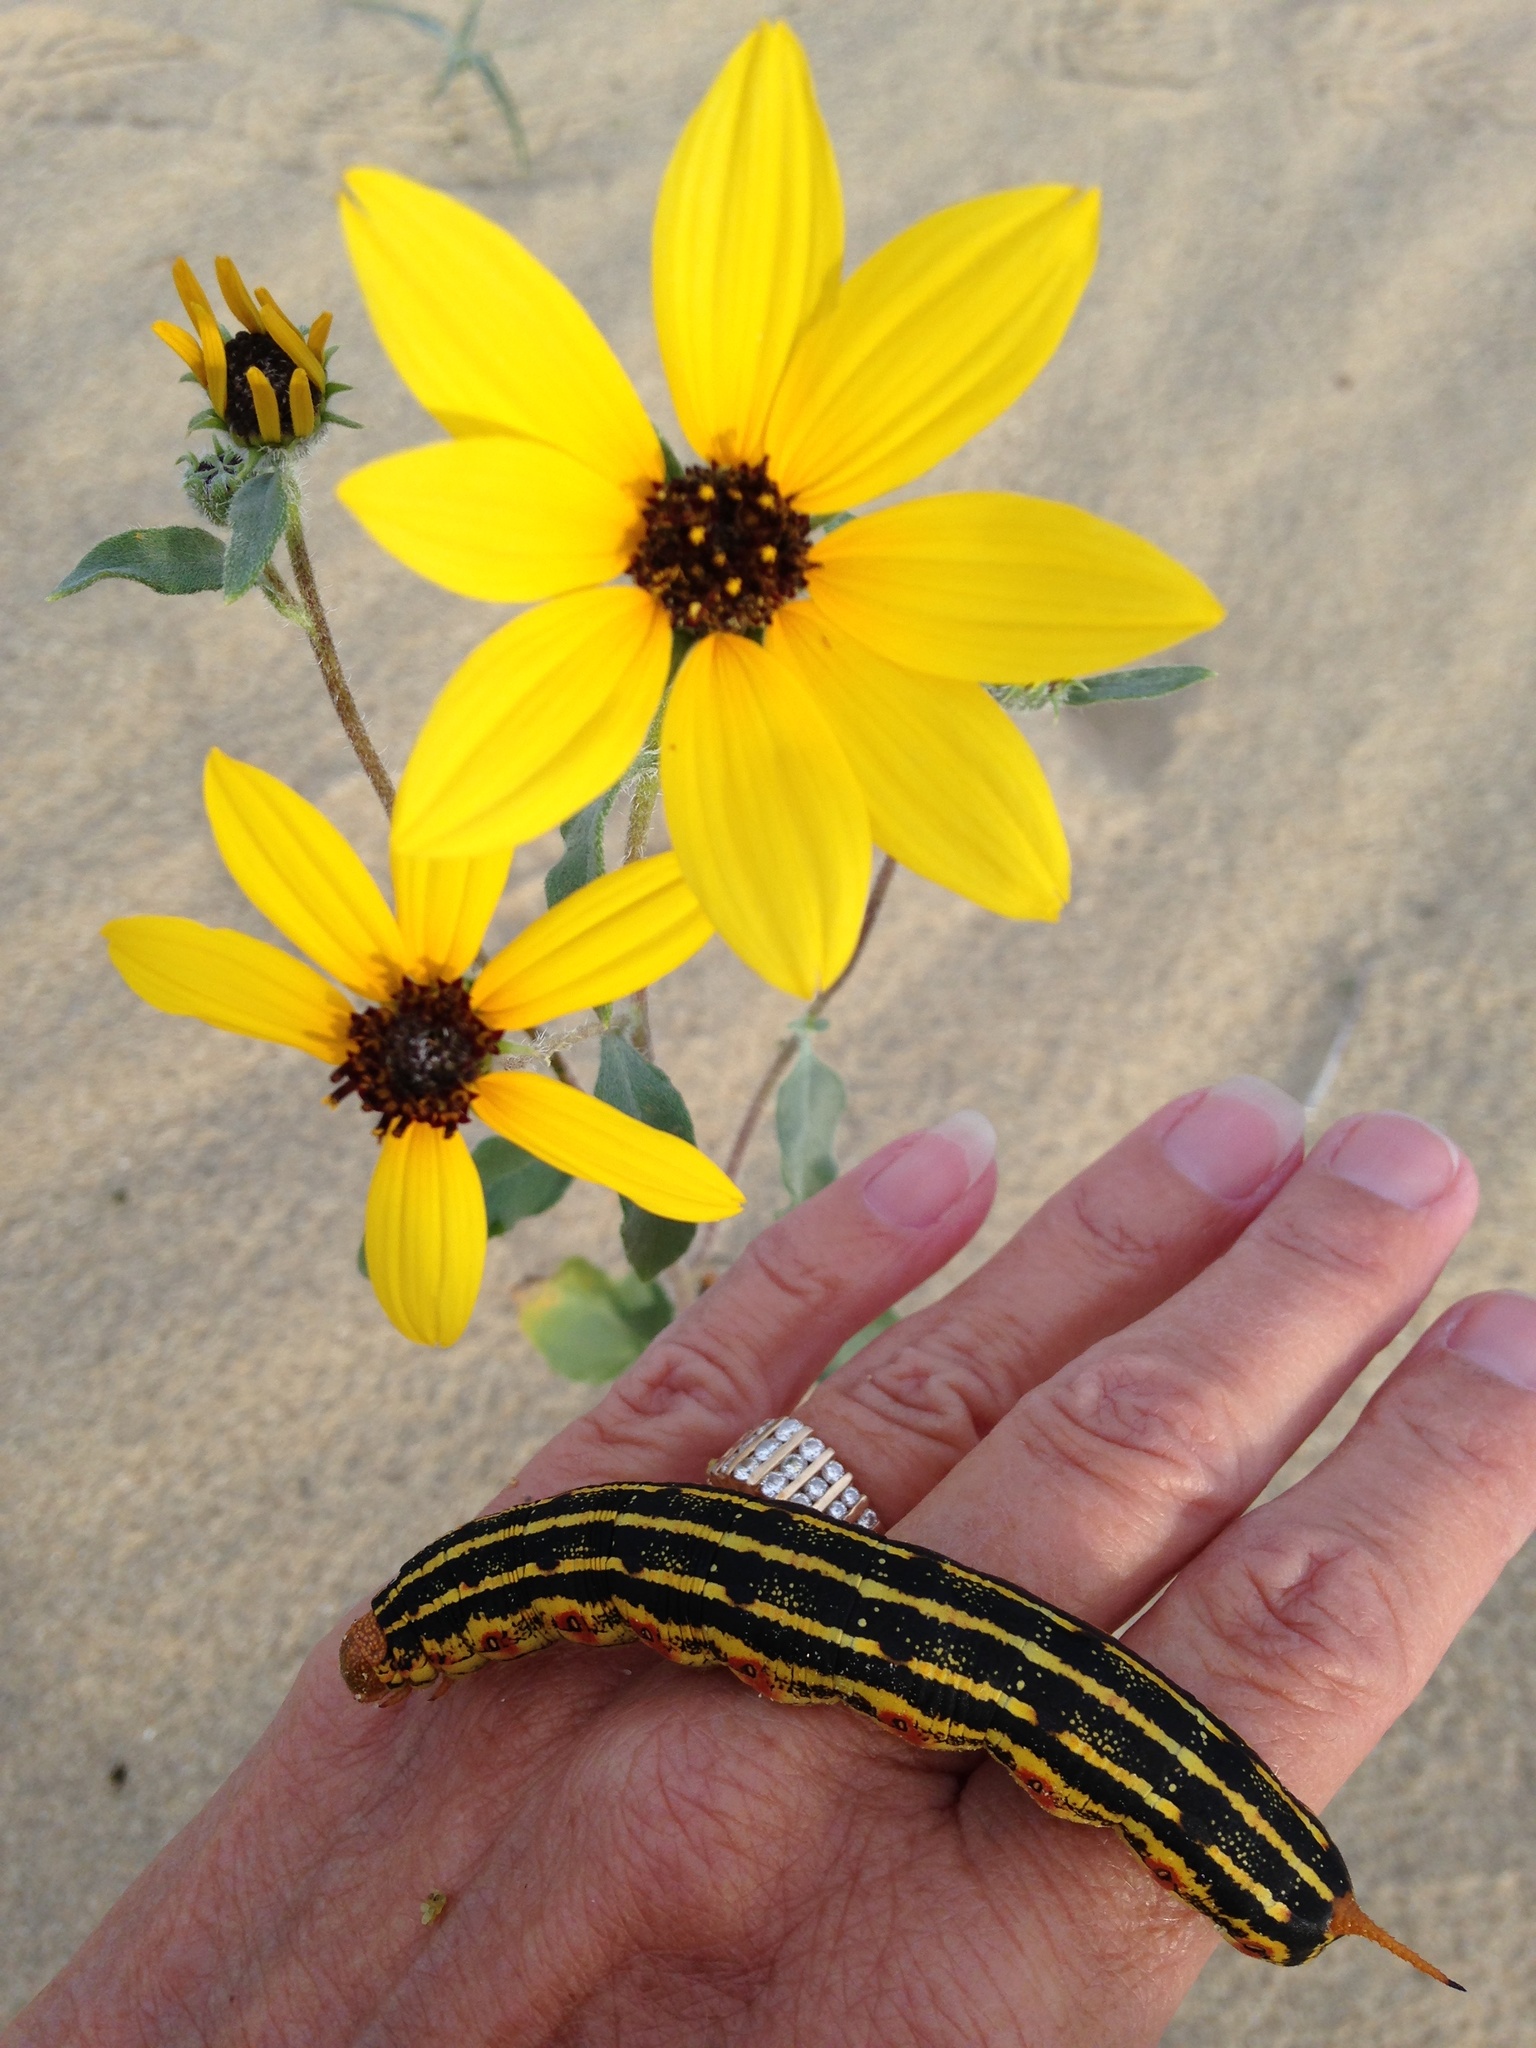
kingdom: Plantae
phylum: Tracheophyta
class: Magnoliopsida
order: Asterales
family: Asteraceae
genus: Helianthus
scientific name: Helianthus petiolaris
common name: Lesser sunflower
